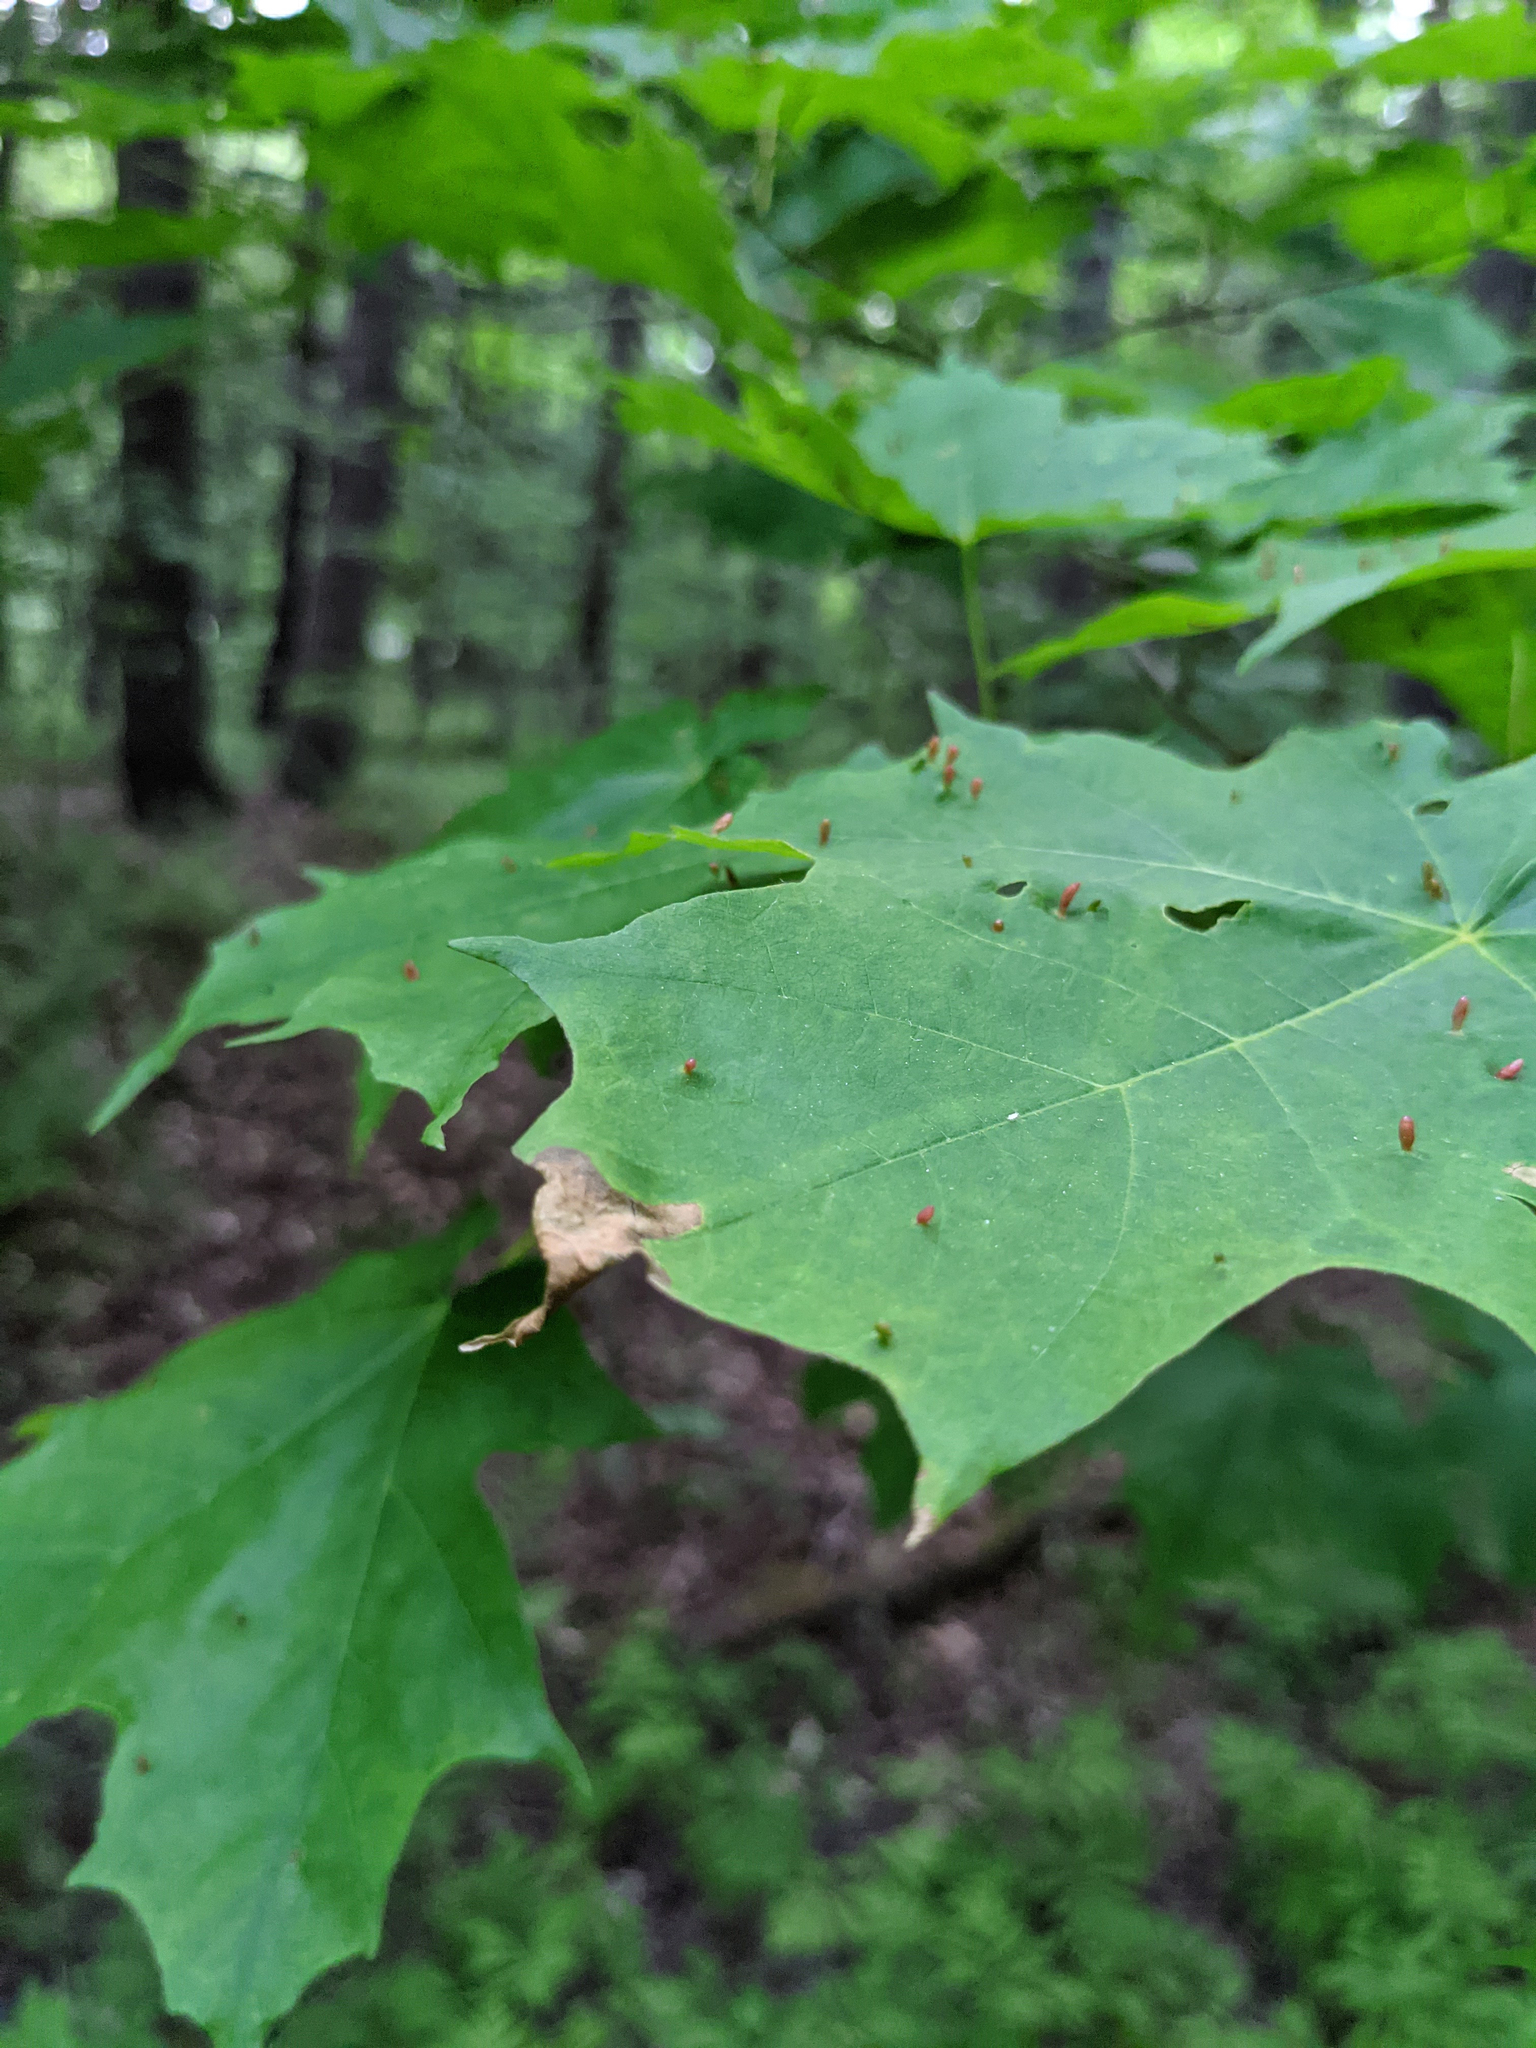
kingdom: Animalia
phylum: Arthropoda
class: Arachnida
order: Trombidiformes
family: Eriophyidae
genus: Vasates
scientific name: Vasates aceriscrumena
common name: Maple spindle gall mite
